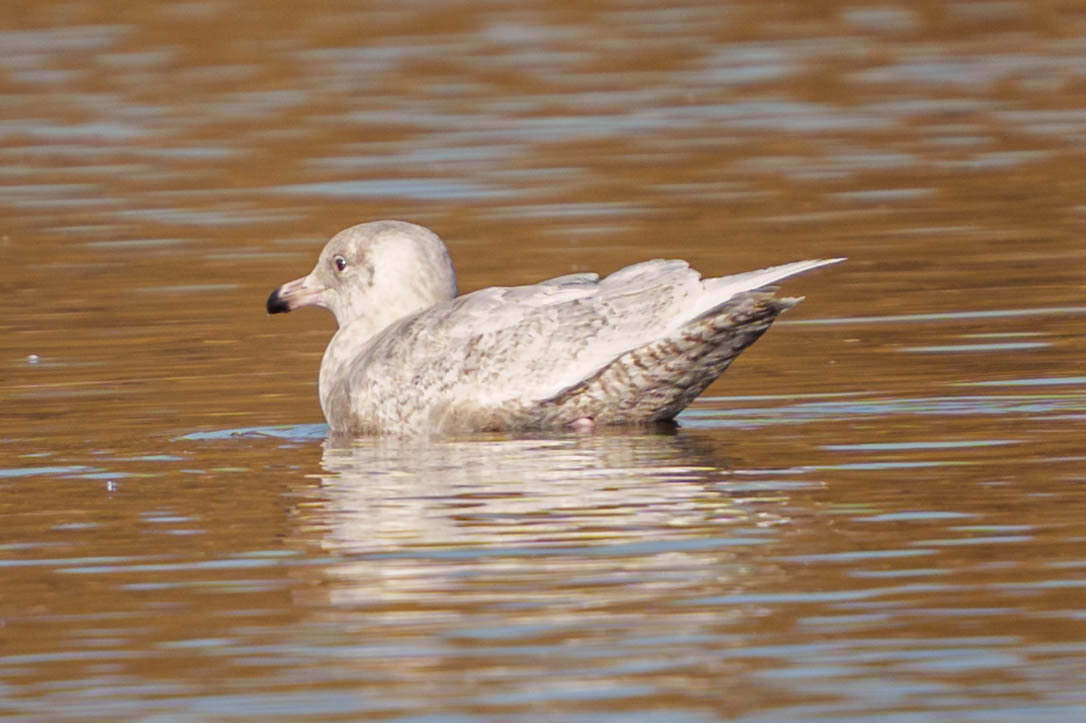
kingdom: Animalia
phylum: Chordata
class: Aves
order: Charadriiformes
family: Laridae
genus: Larus
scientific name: Larus hyperboreus
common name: Glaucous gull
